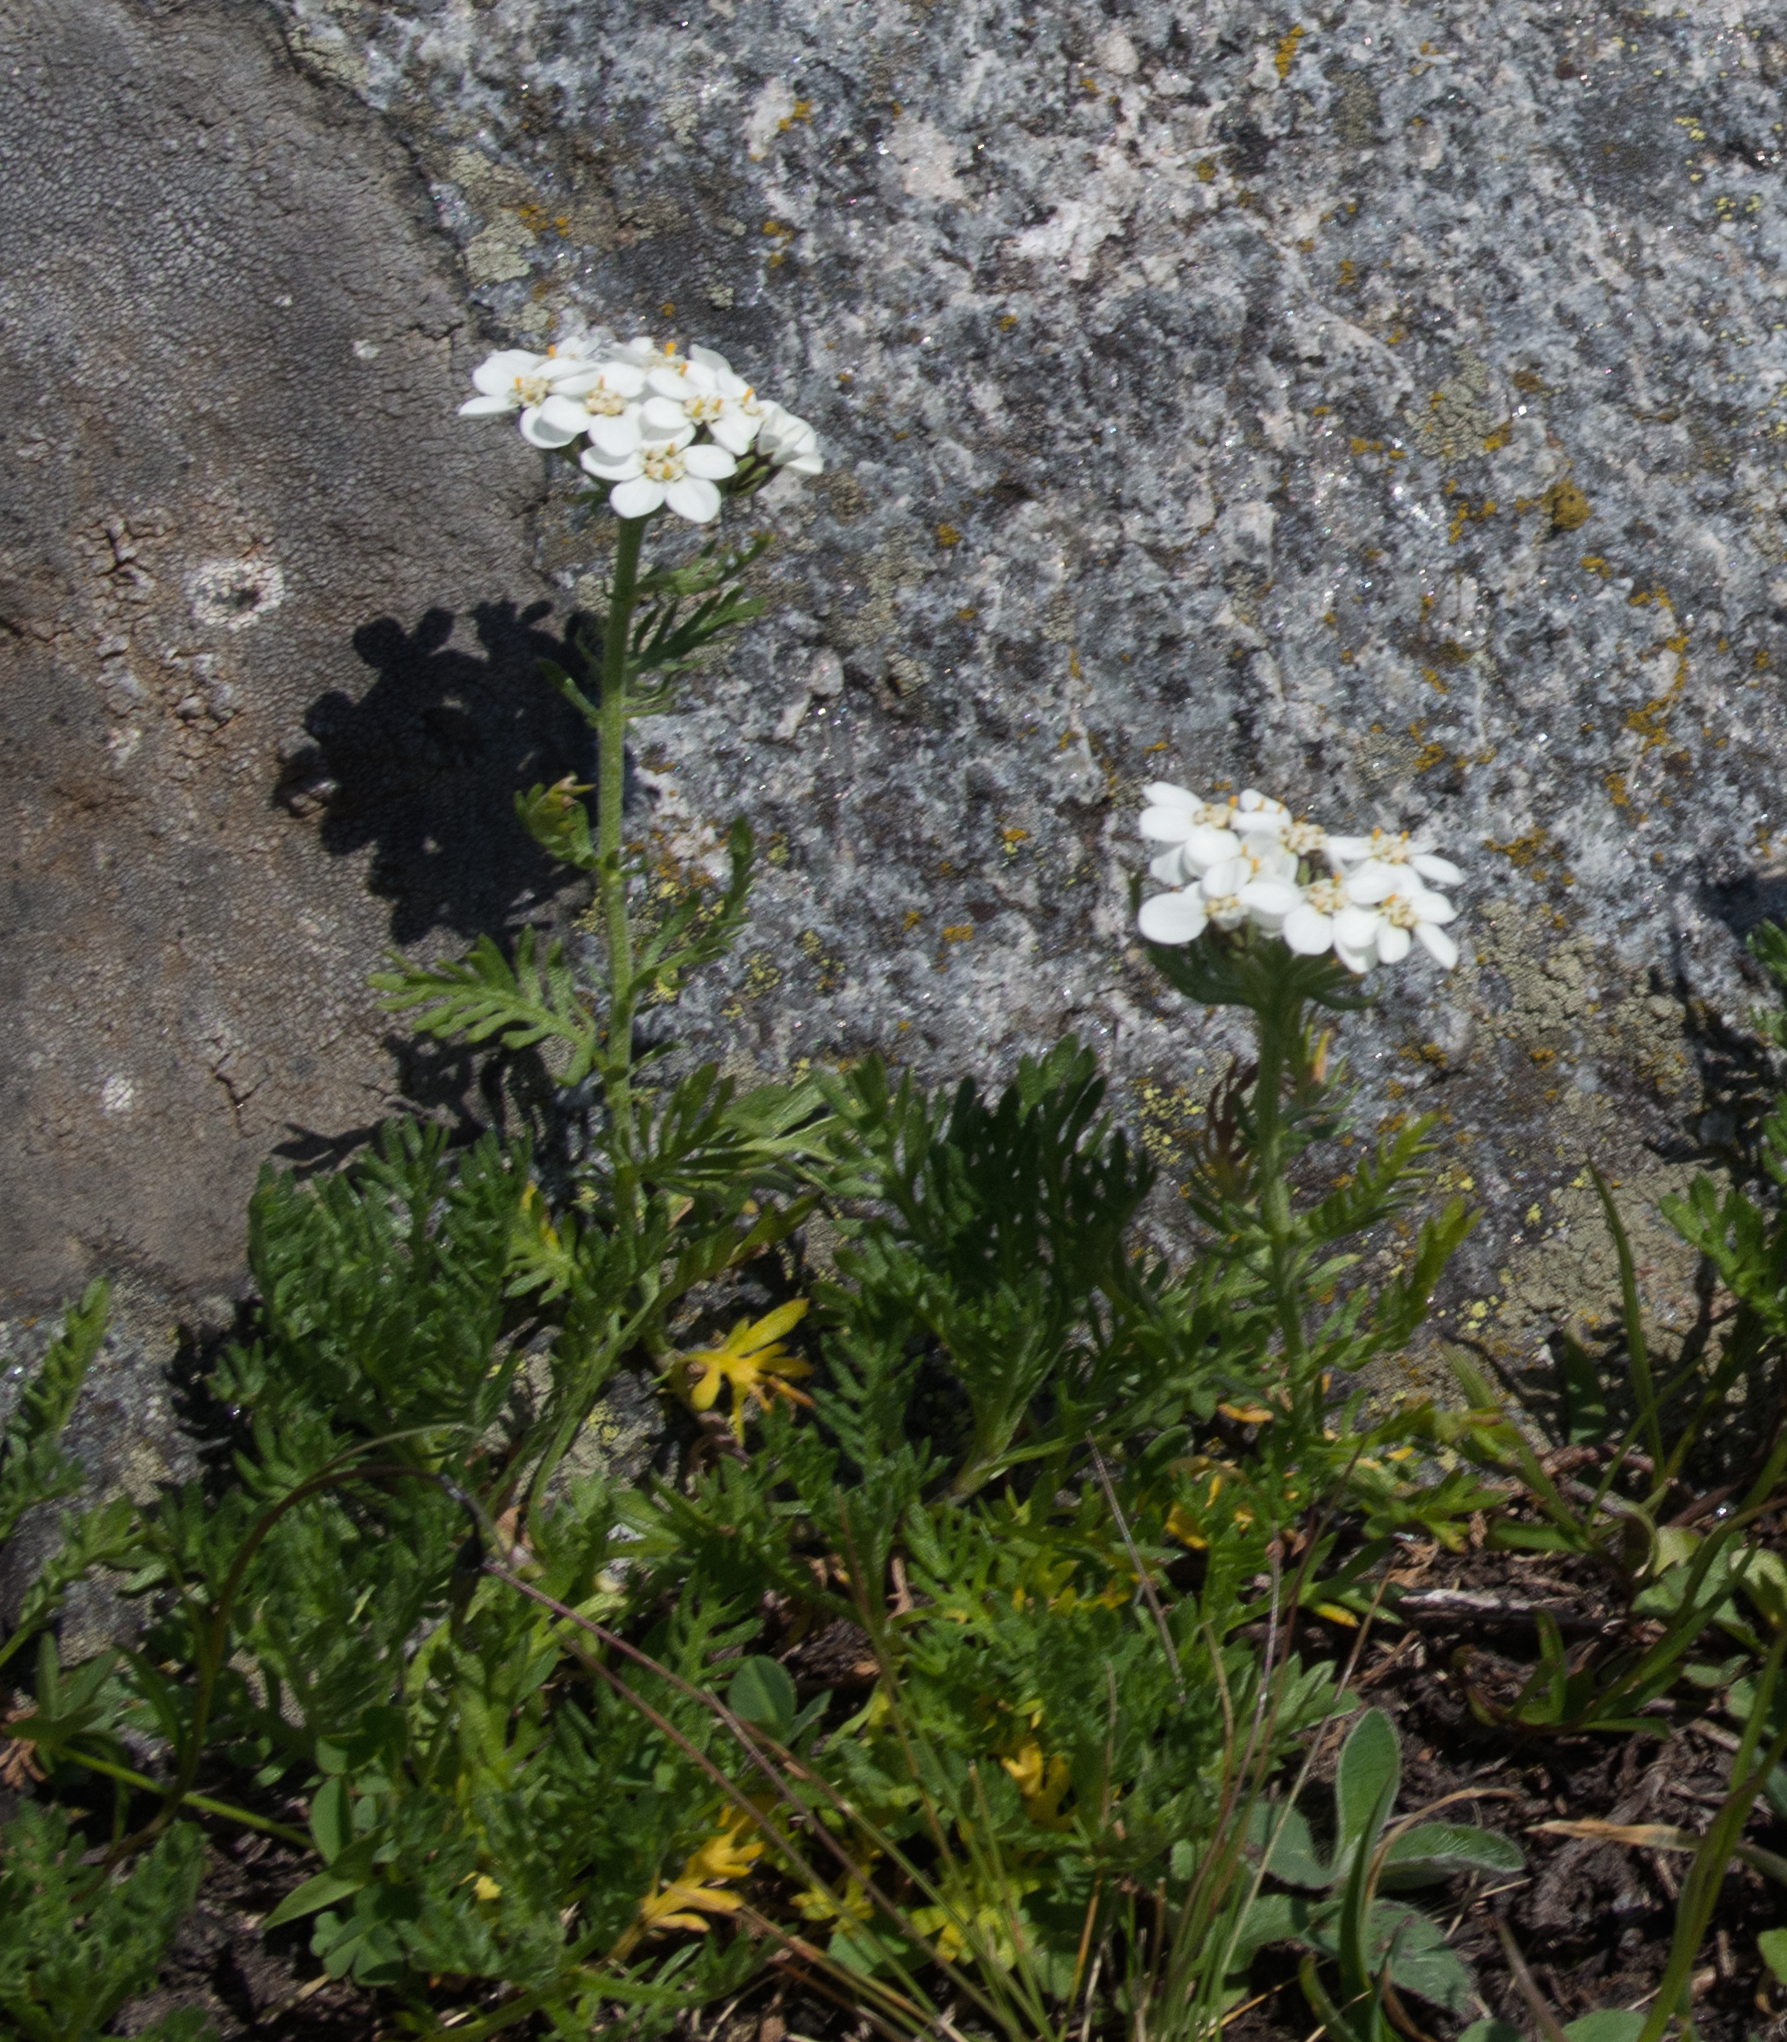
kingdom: Plantae
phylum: Tracheophyta
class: Magnoliopsida
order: Asterales
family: Asteraceae
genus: Achillea
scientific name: Achillea erba-rotta
